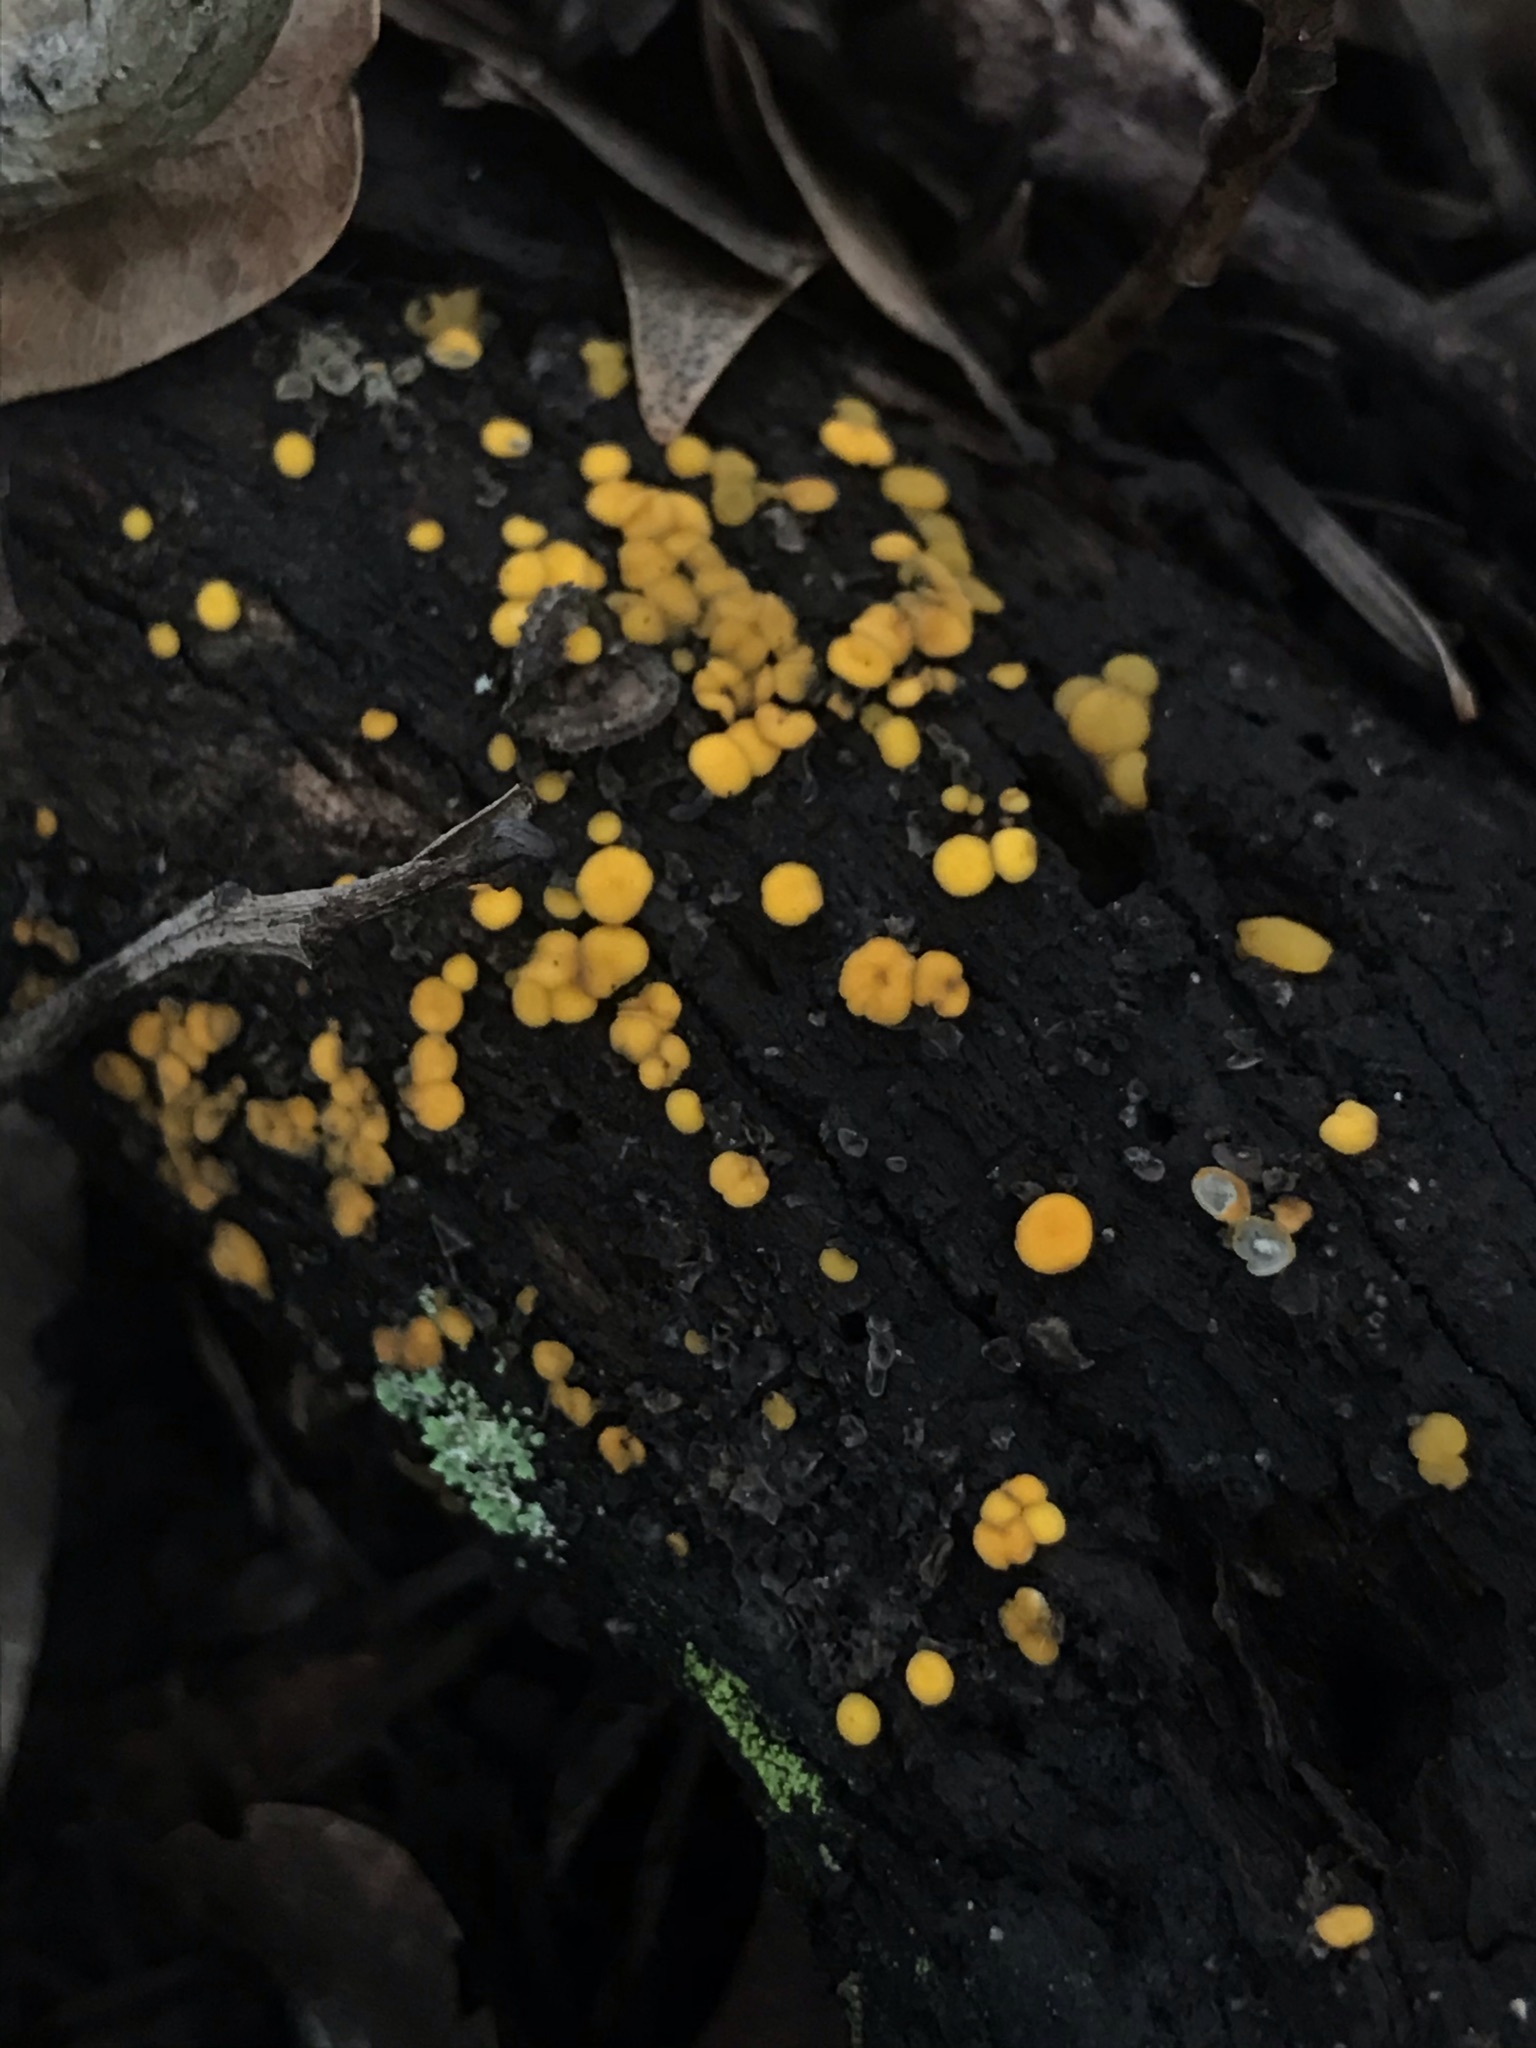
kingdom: Fungi
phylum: Ascomycota
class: Leotiomycetes
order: Helotiales
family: Pezizellaceae
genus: Calycina
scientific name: Calycina citrina
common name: Yellow fairy cups
